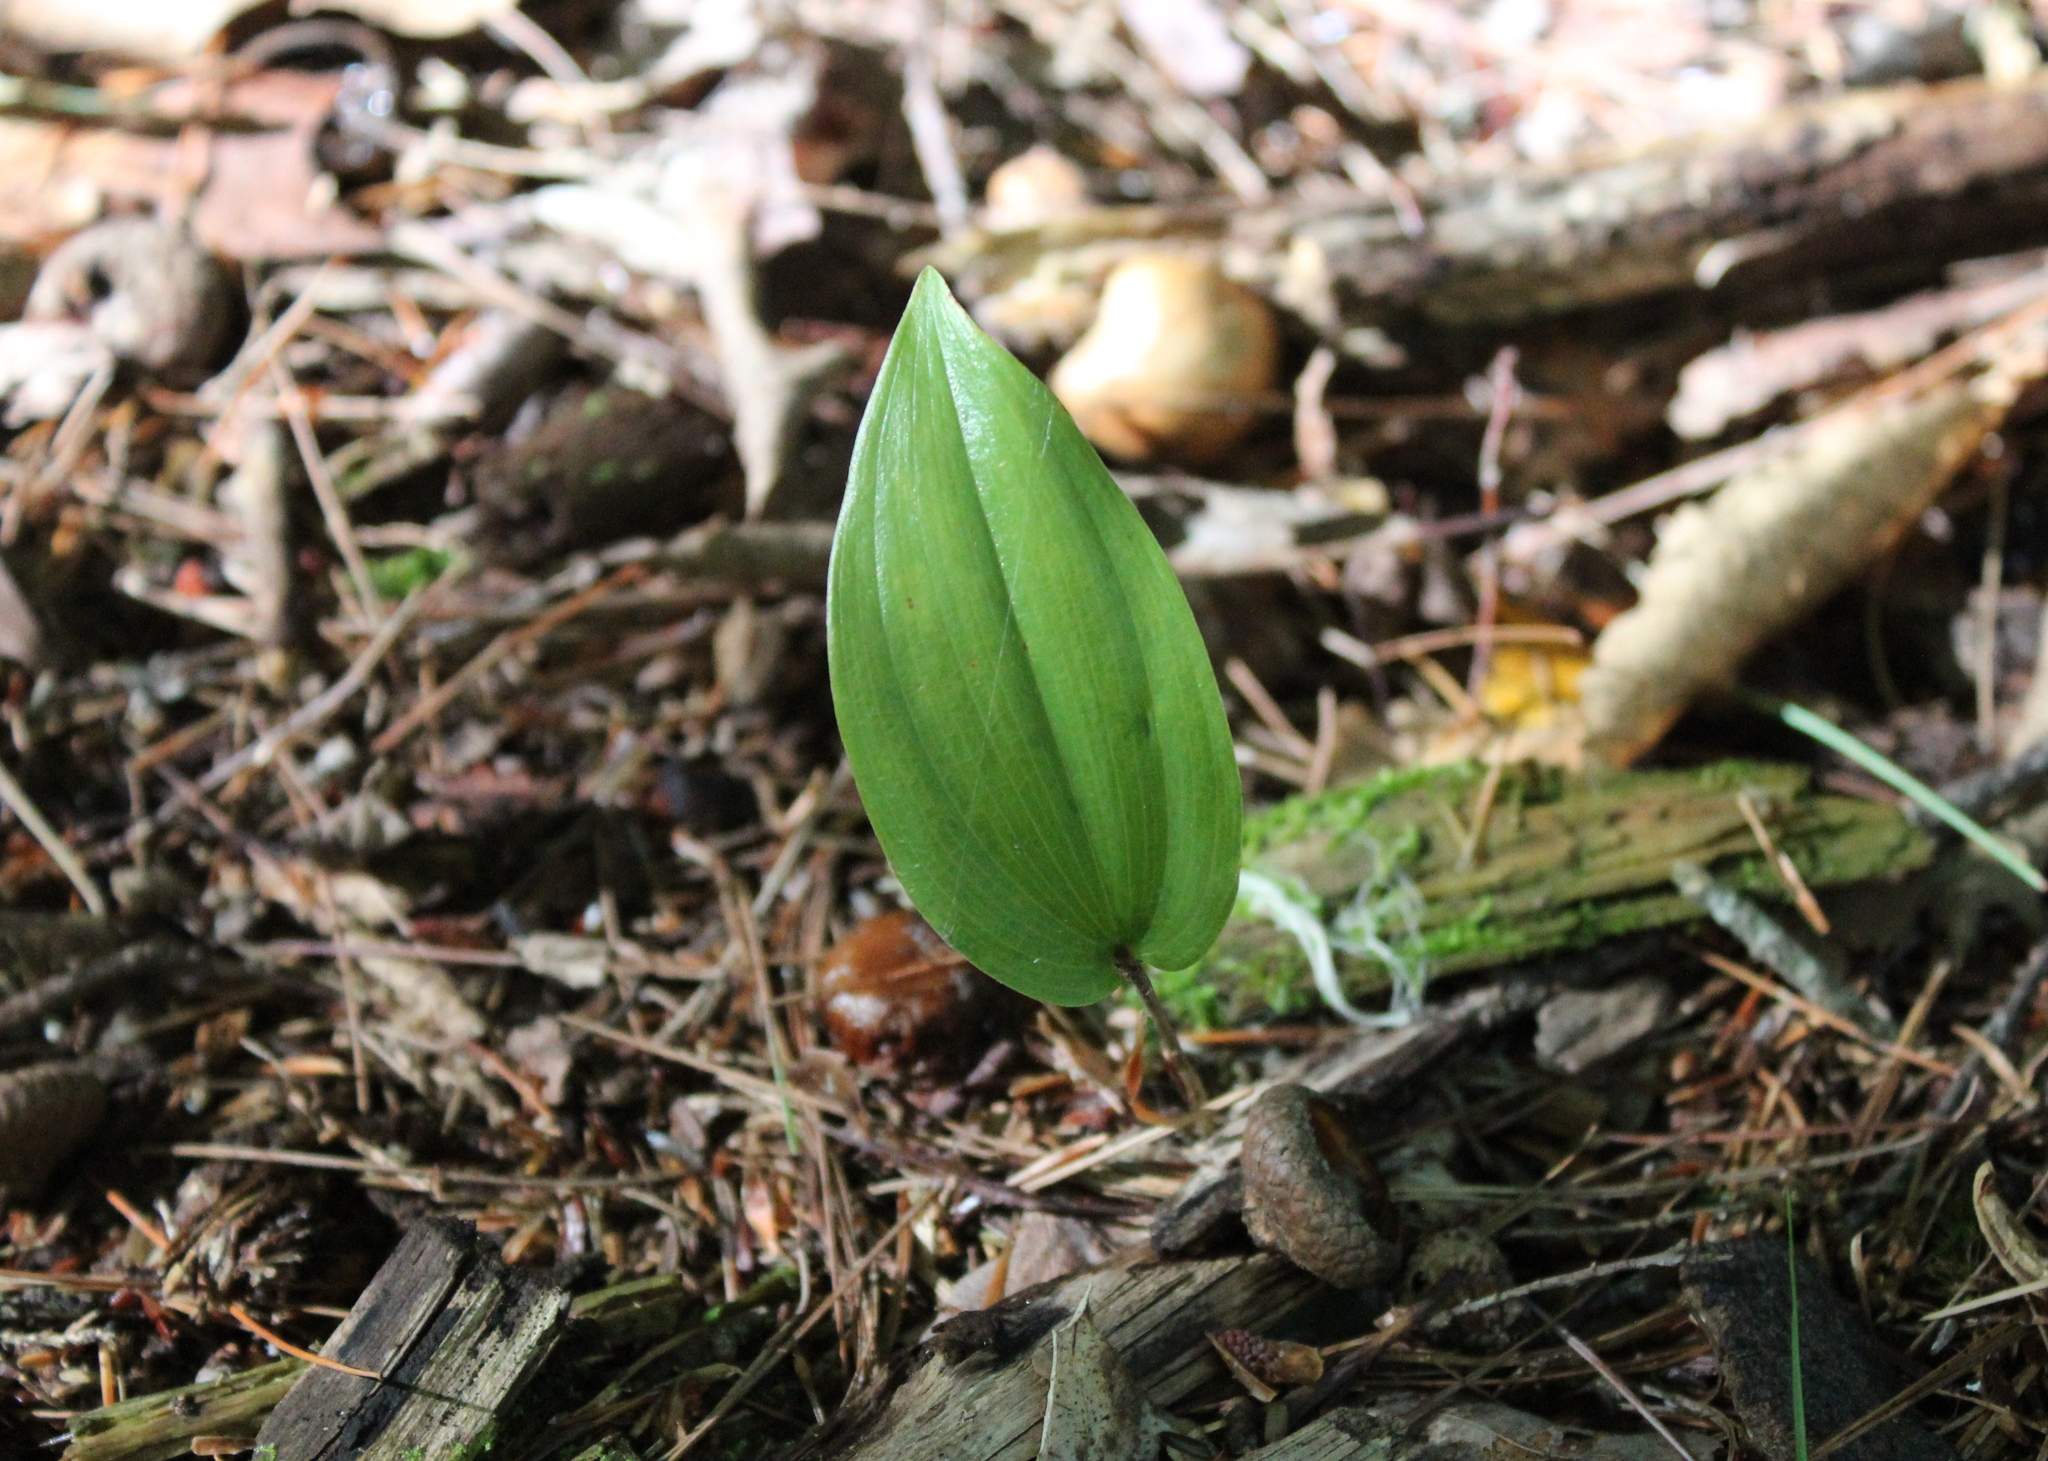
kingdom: Plantae
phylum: Tracheophyta
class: Liliopsida
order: Asparagales
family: Asparagaceae
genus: Maianthemum
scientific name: Maianthemum canadense
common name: False lily-of-the-valley
